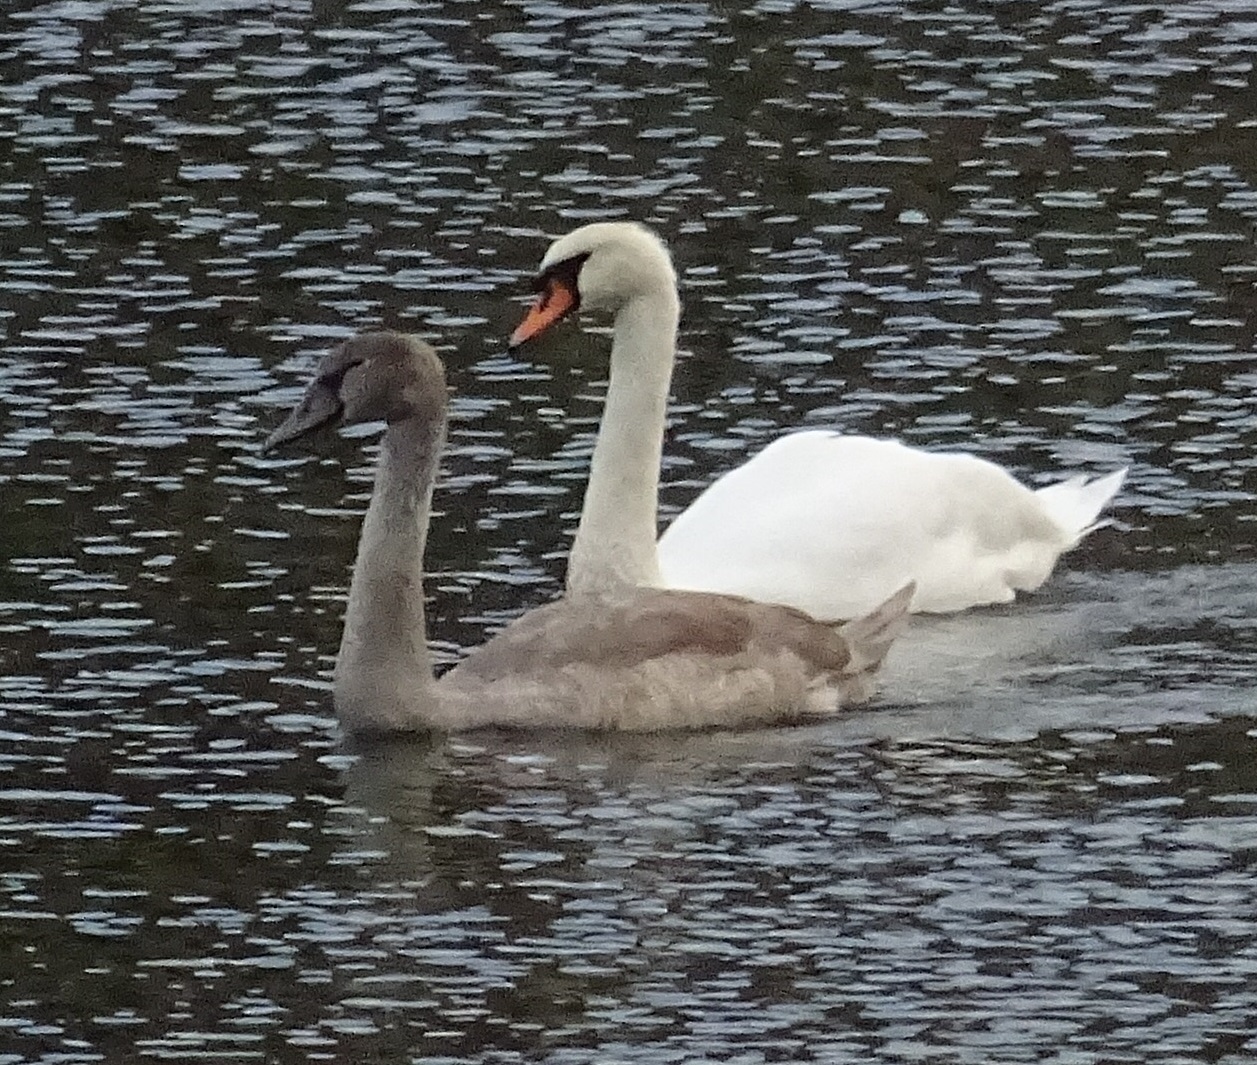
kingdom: Animalia
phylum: Chordata
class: Aves
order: Anseriformes
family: Anatidae
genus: Cygnus
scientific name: Cygnus olor
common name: Mute swan
